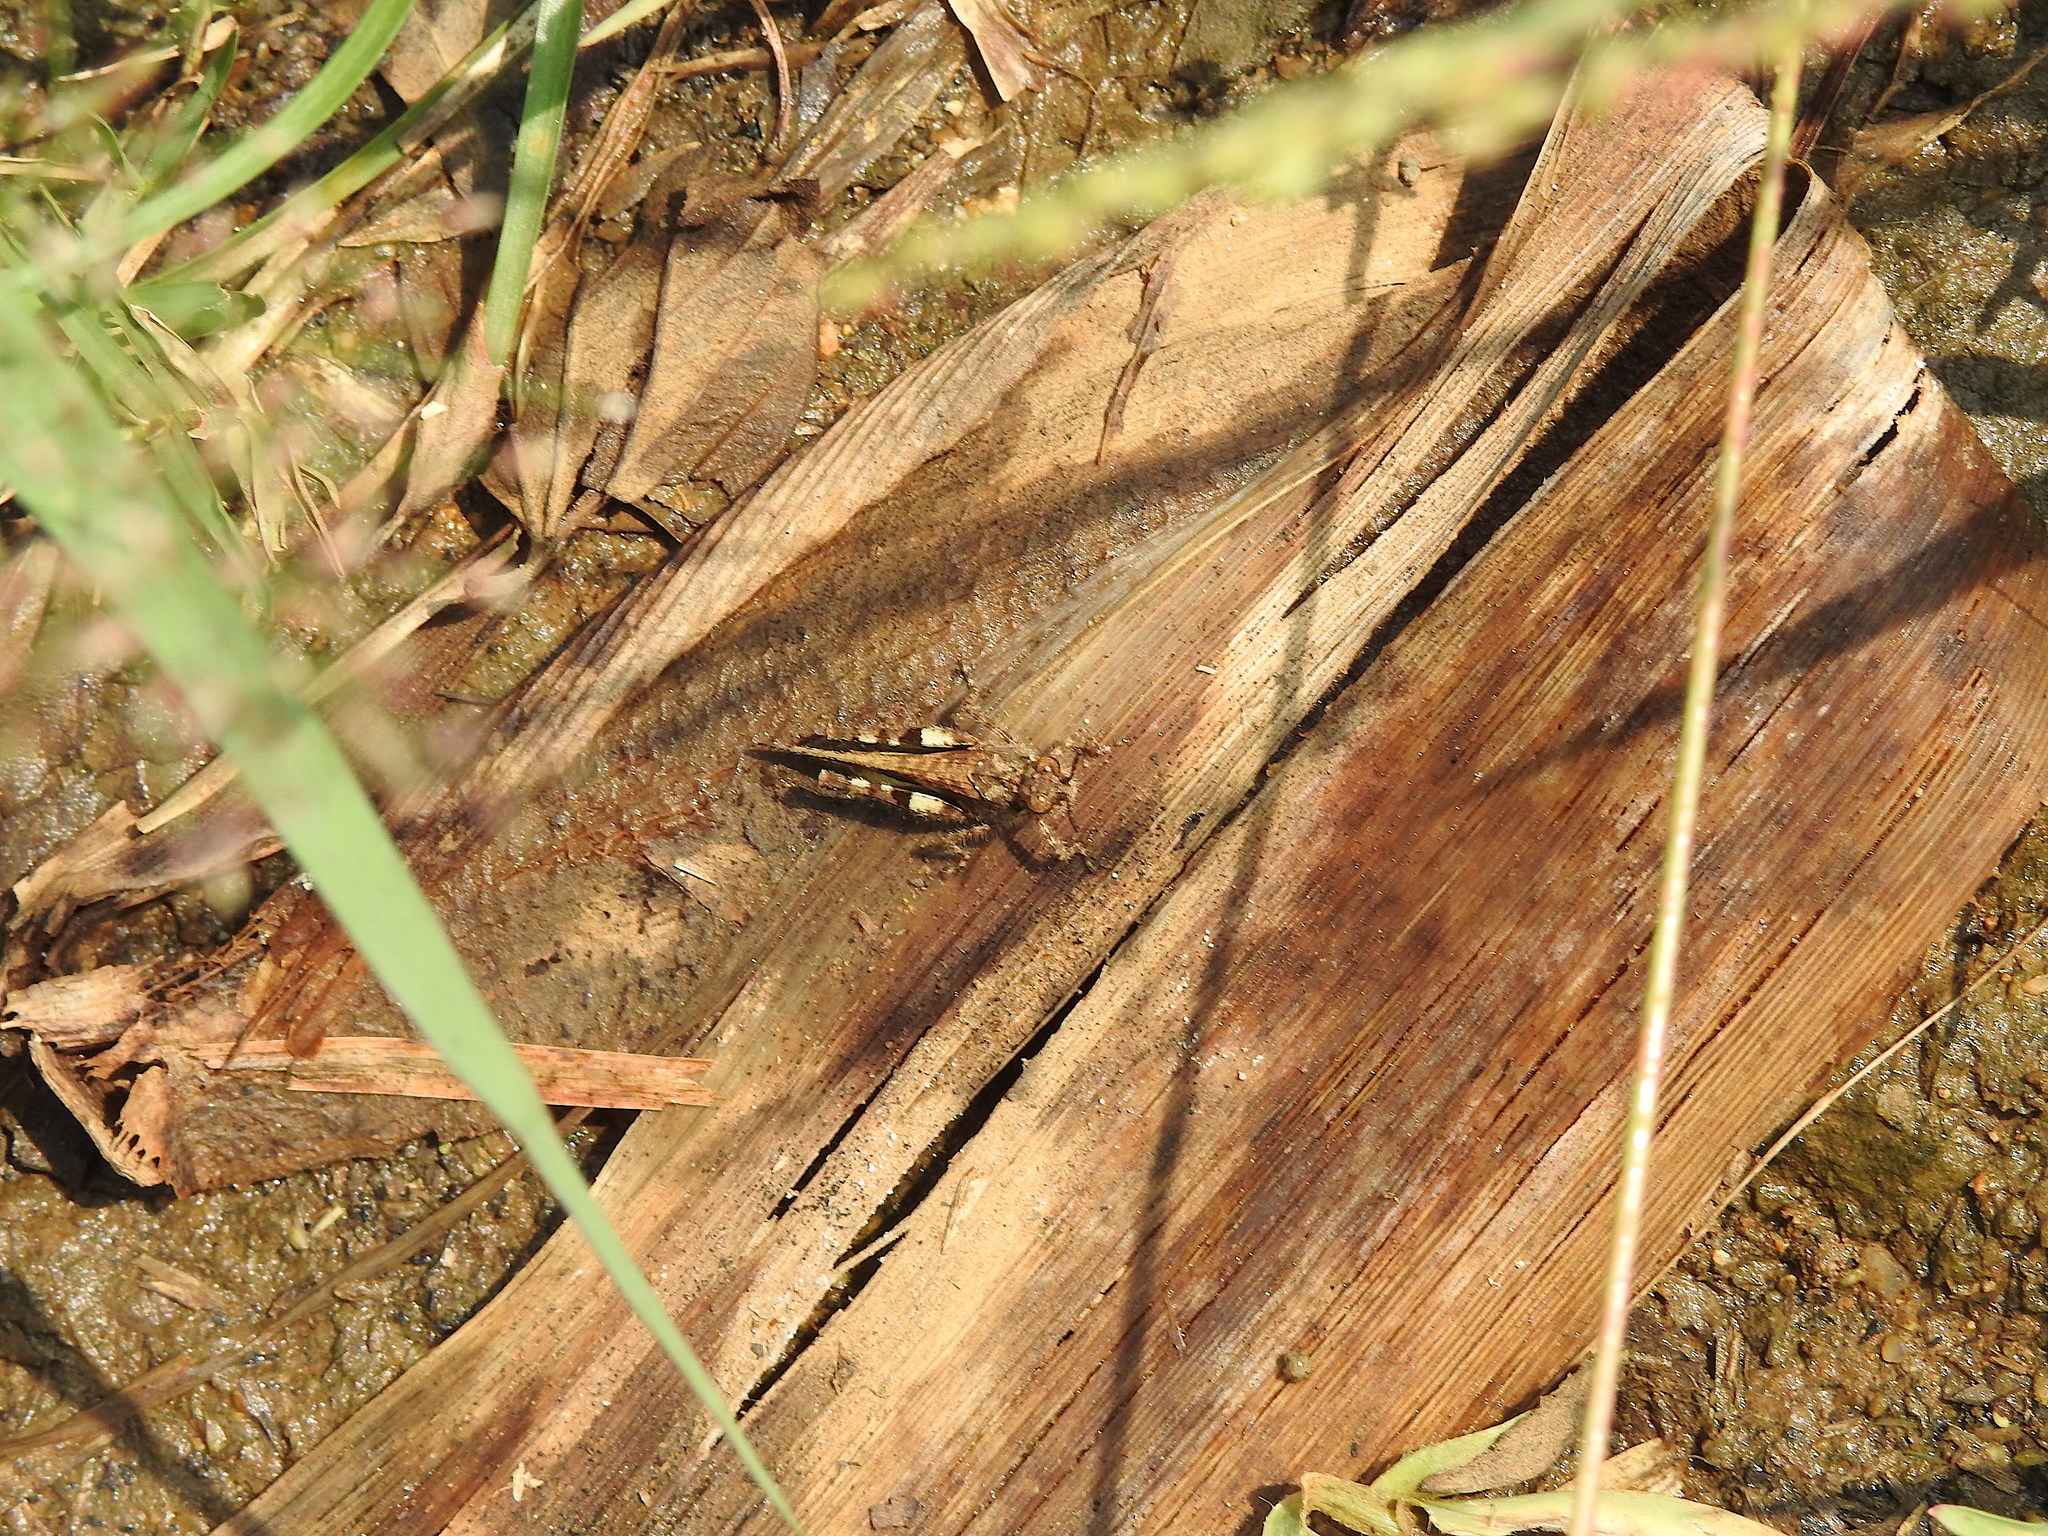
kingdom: Animalia
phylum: Arthropoda
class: Insecta
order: Orthoptera
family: Acrididae
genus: Trilophidia
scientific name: Trilophidia annulata
